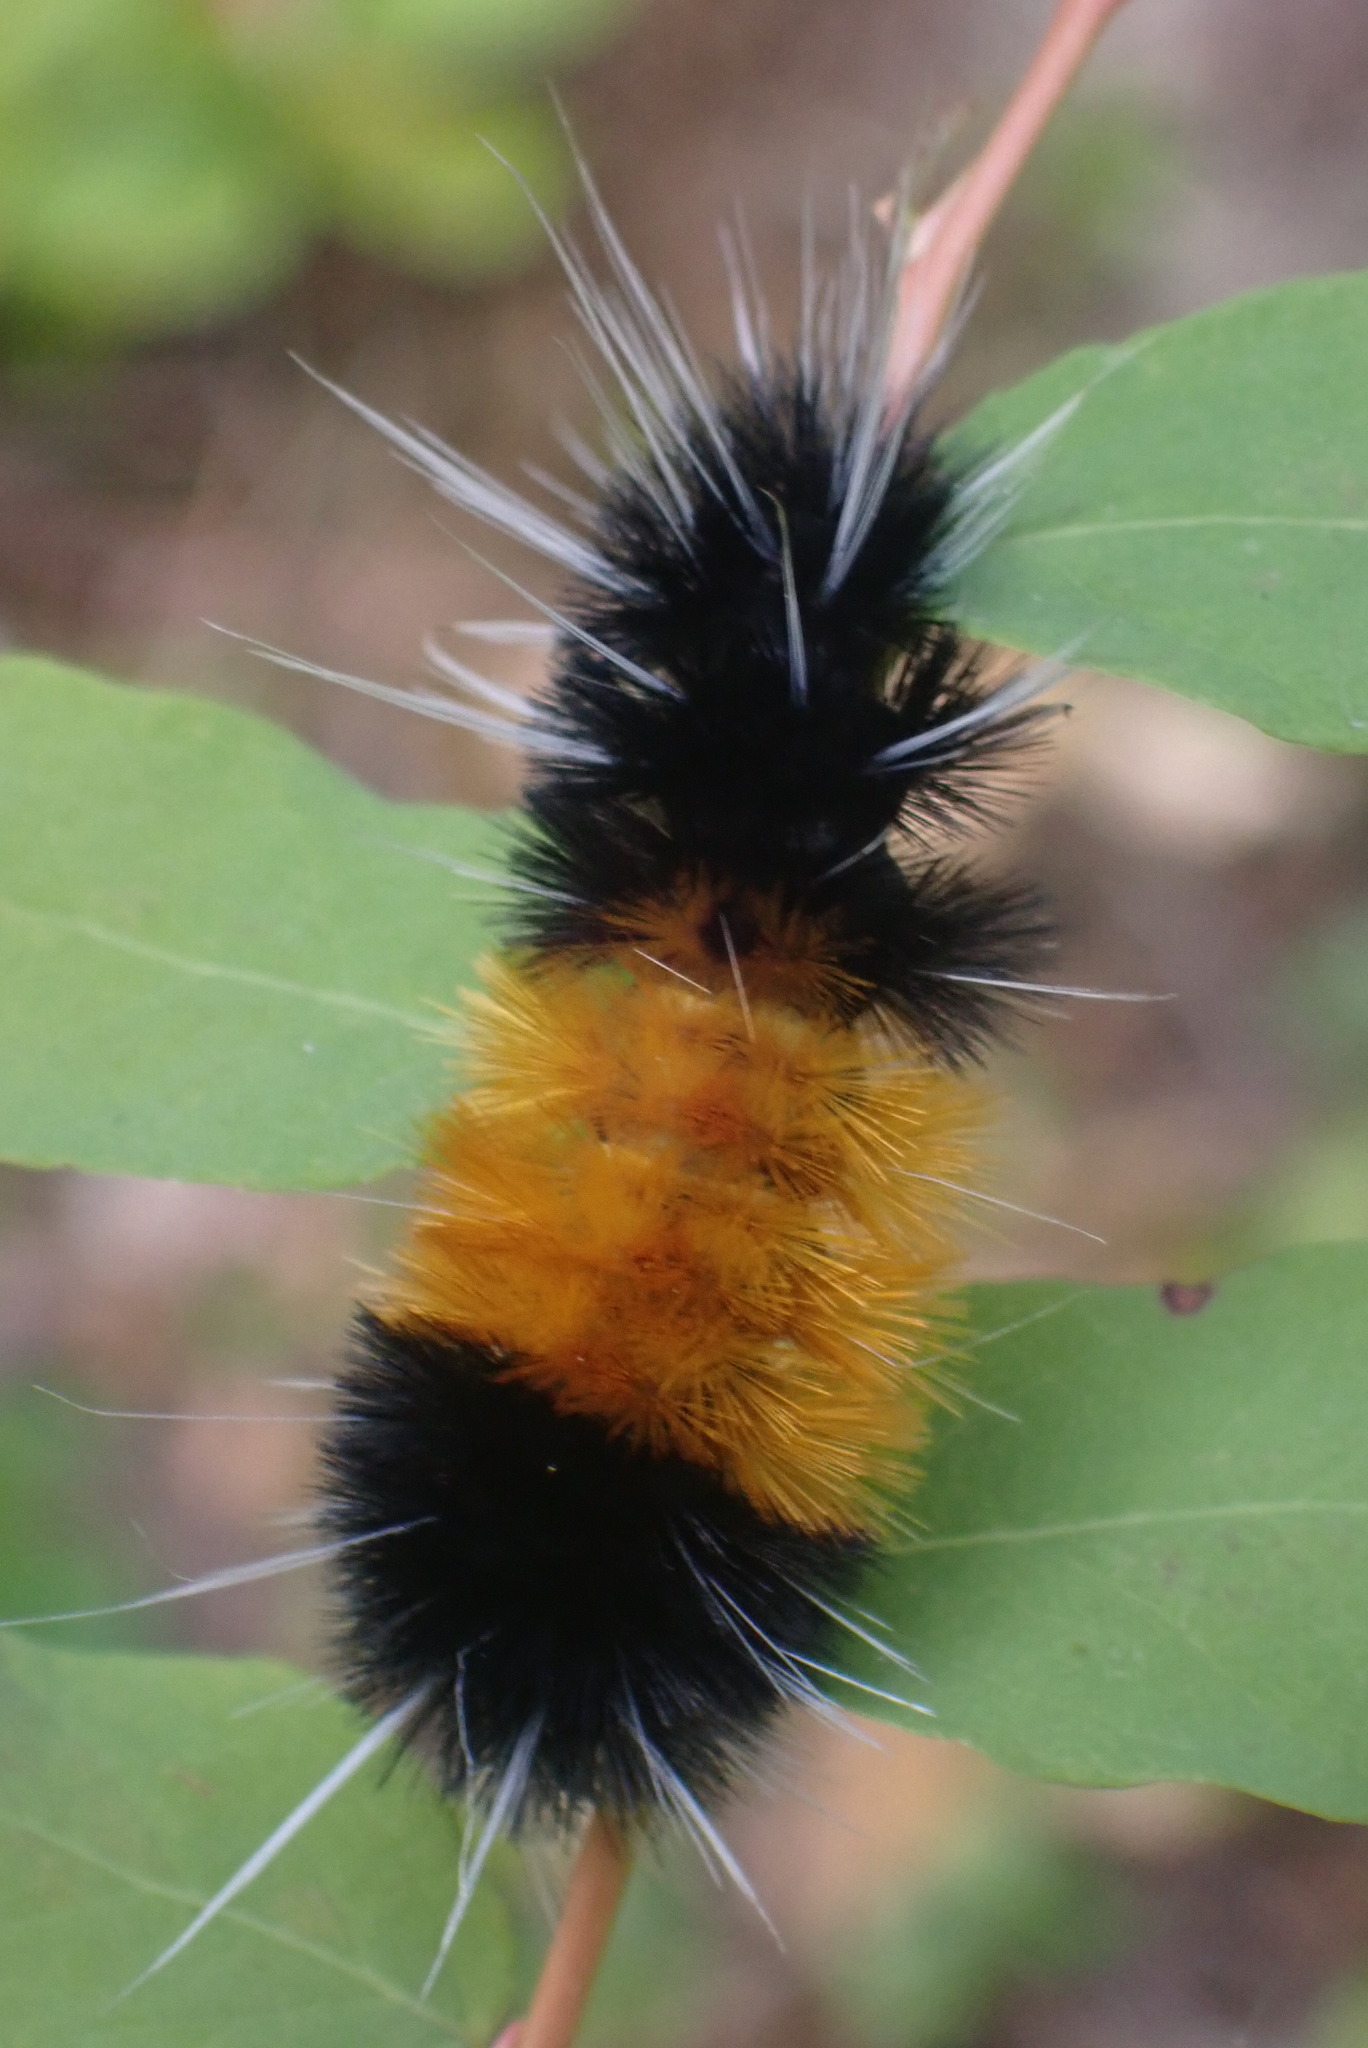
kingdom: Animalia
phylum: Arthropoda
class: Insecta
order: Lepidoptera
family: Erebidae
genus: Lophocampa
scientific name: Lophocampa maculata
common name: Spotted tussock moth
